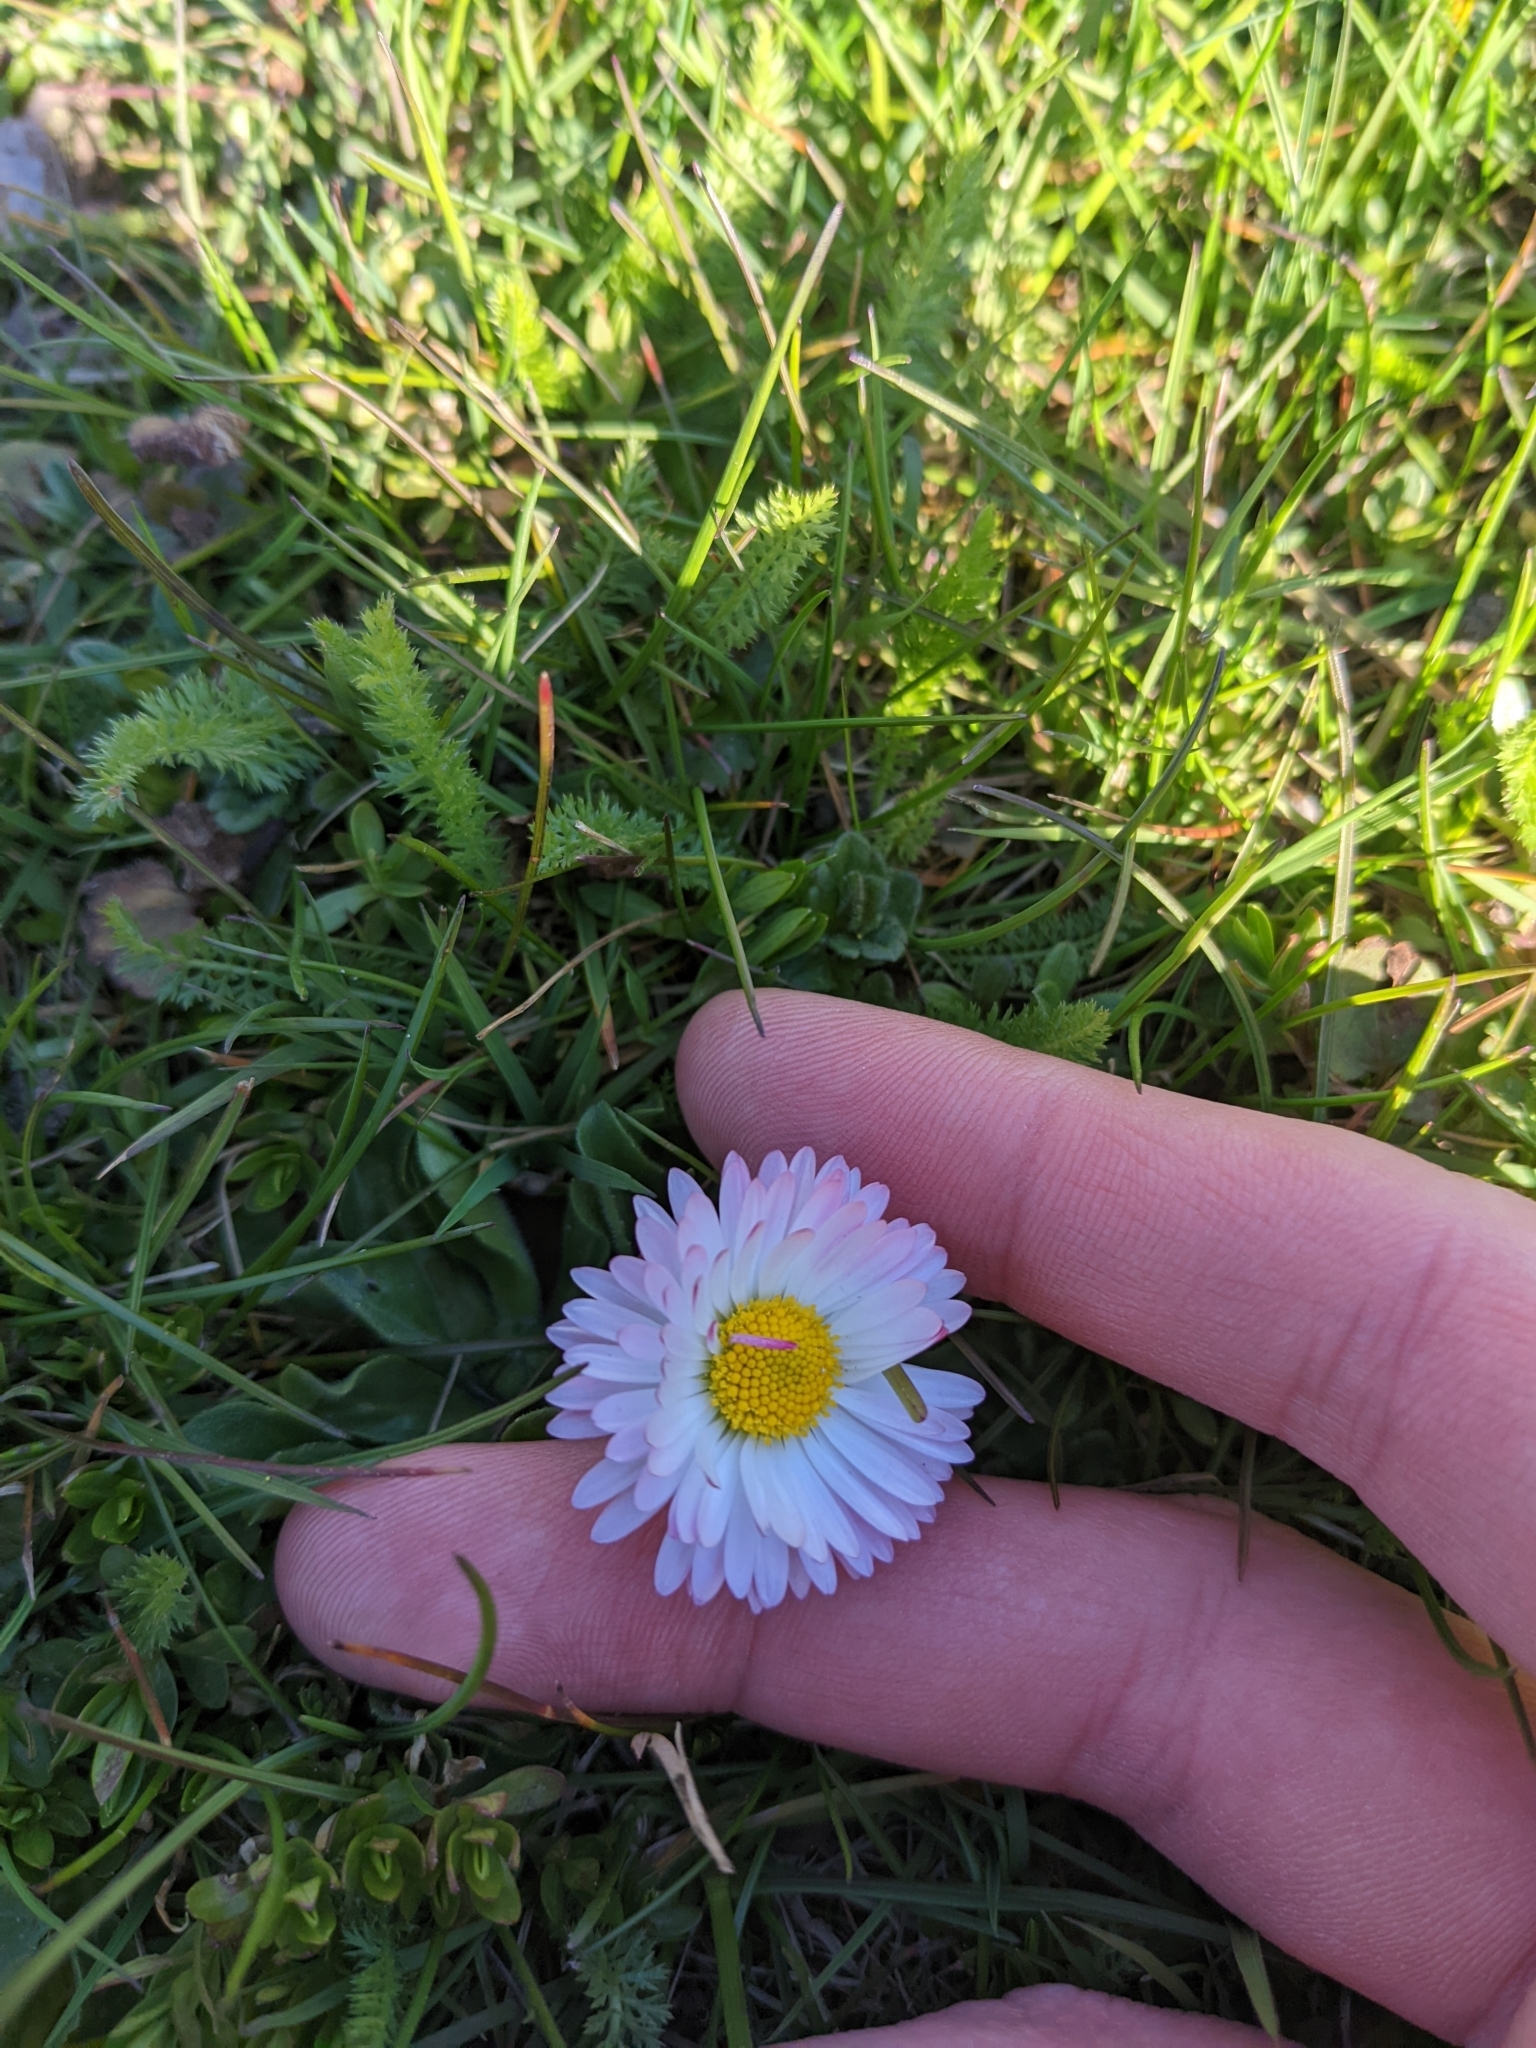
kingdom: Plantae
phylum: Tracheophyta
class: Magnoliopsida
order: Asterales
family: Asteraceae
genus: Bellis
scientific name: Bellis perennis
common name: Lawndaisy
